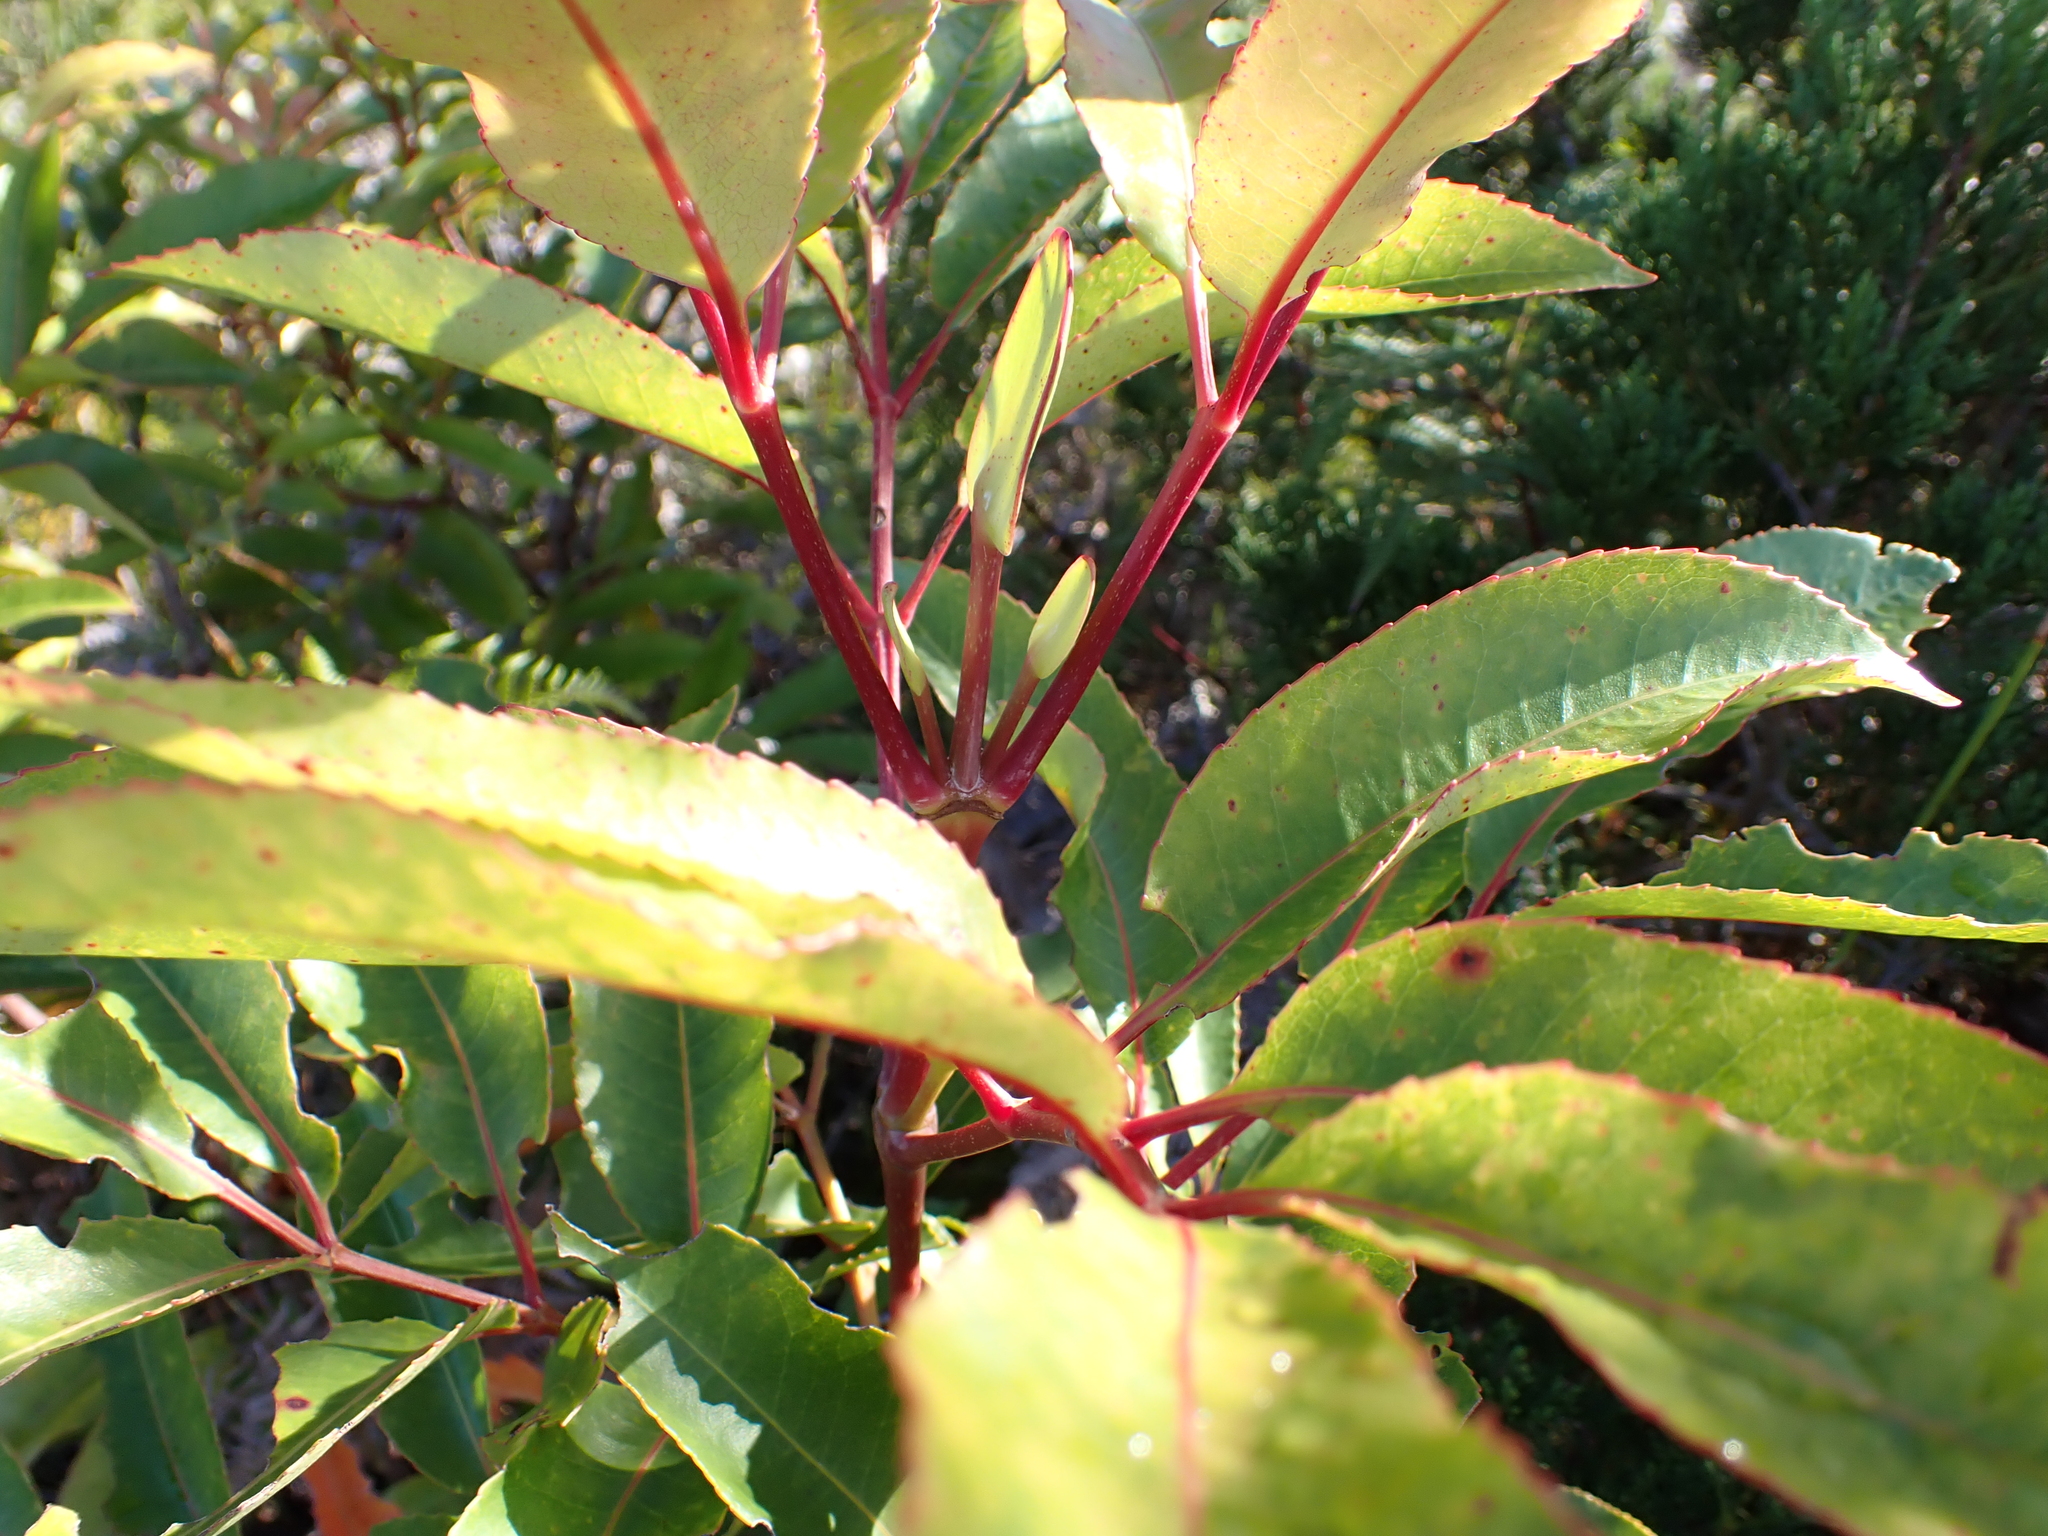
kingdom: Plantae
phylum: Tracheophyta
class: Magnoliopsida
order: Oxalidales
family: Cunoniaceae
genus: Cunonia
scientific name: Cunonia capensis
